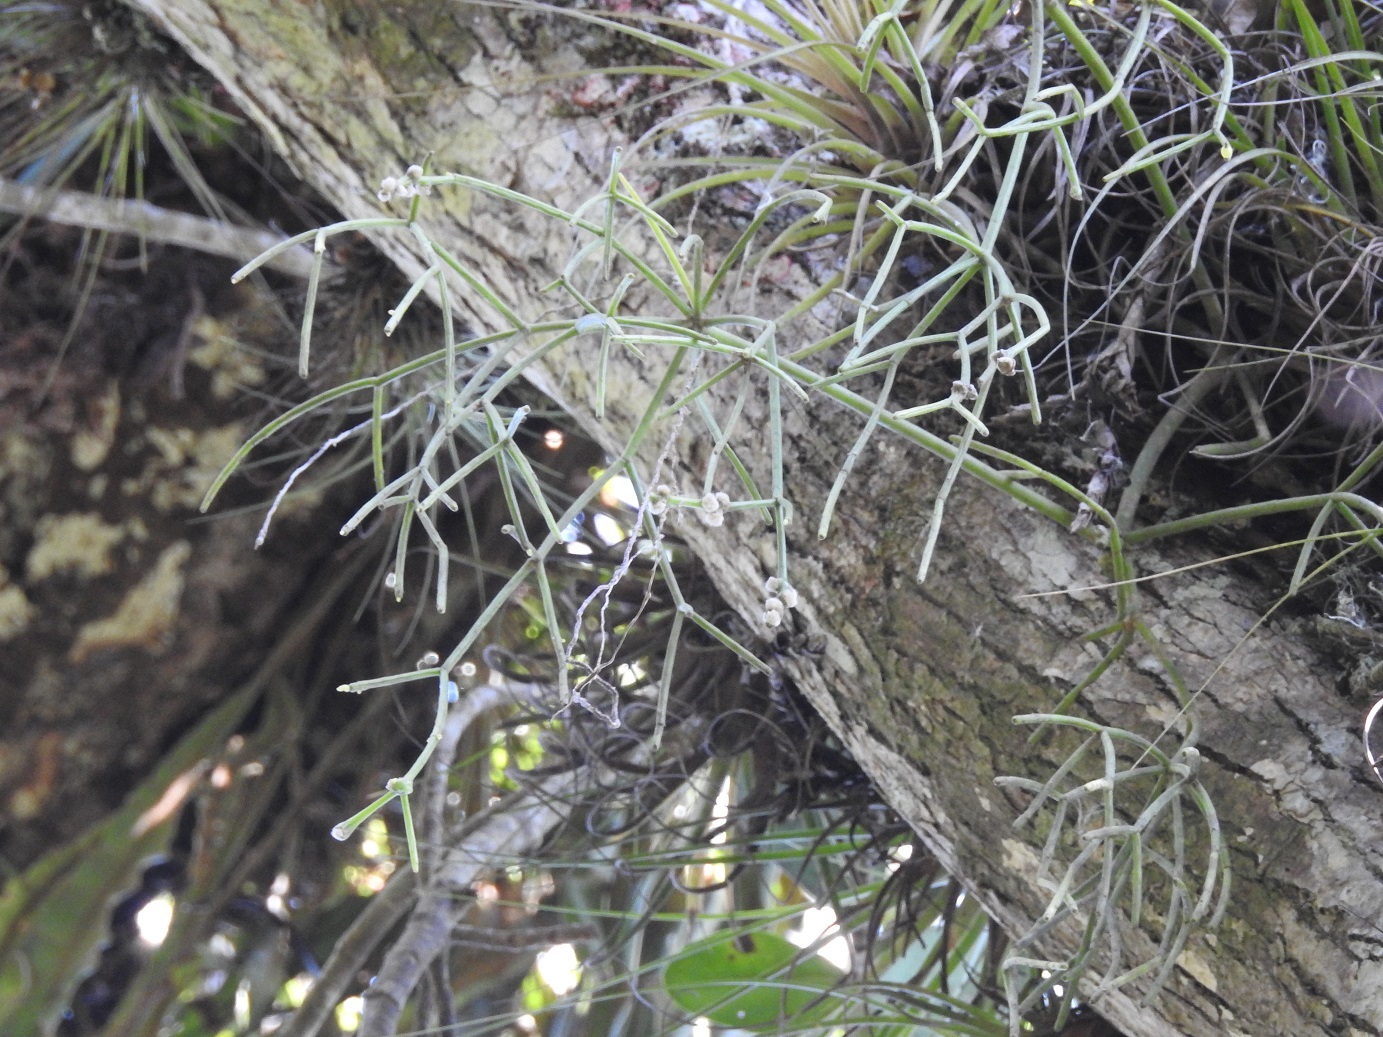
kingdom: Plantae
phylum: Tracheophyta
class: Magnoliopsida
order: Caryophyllales
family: Cactaceae
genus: Rhipsalis
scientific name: Rhipsalis baccifera
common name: Mistletoe cactus
